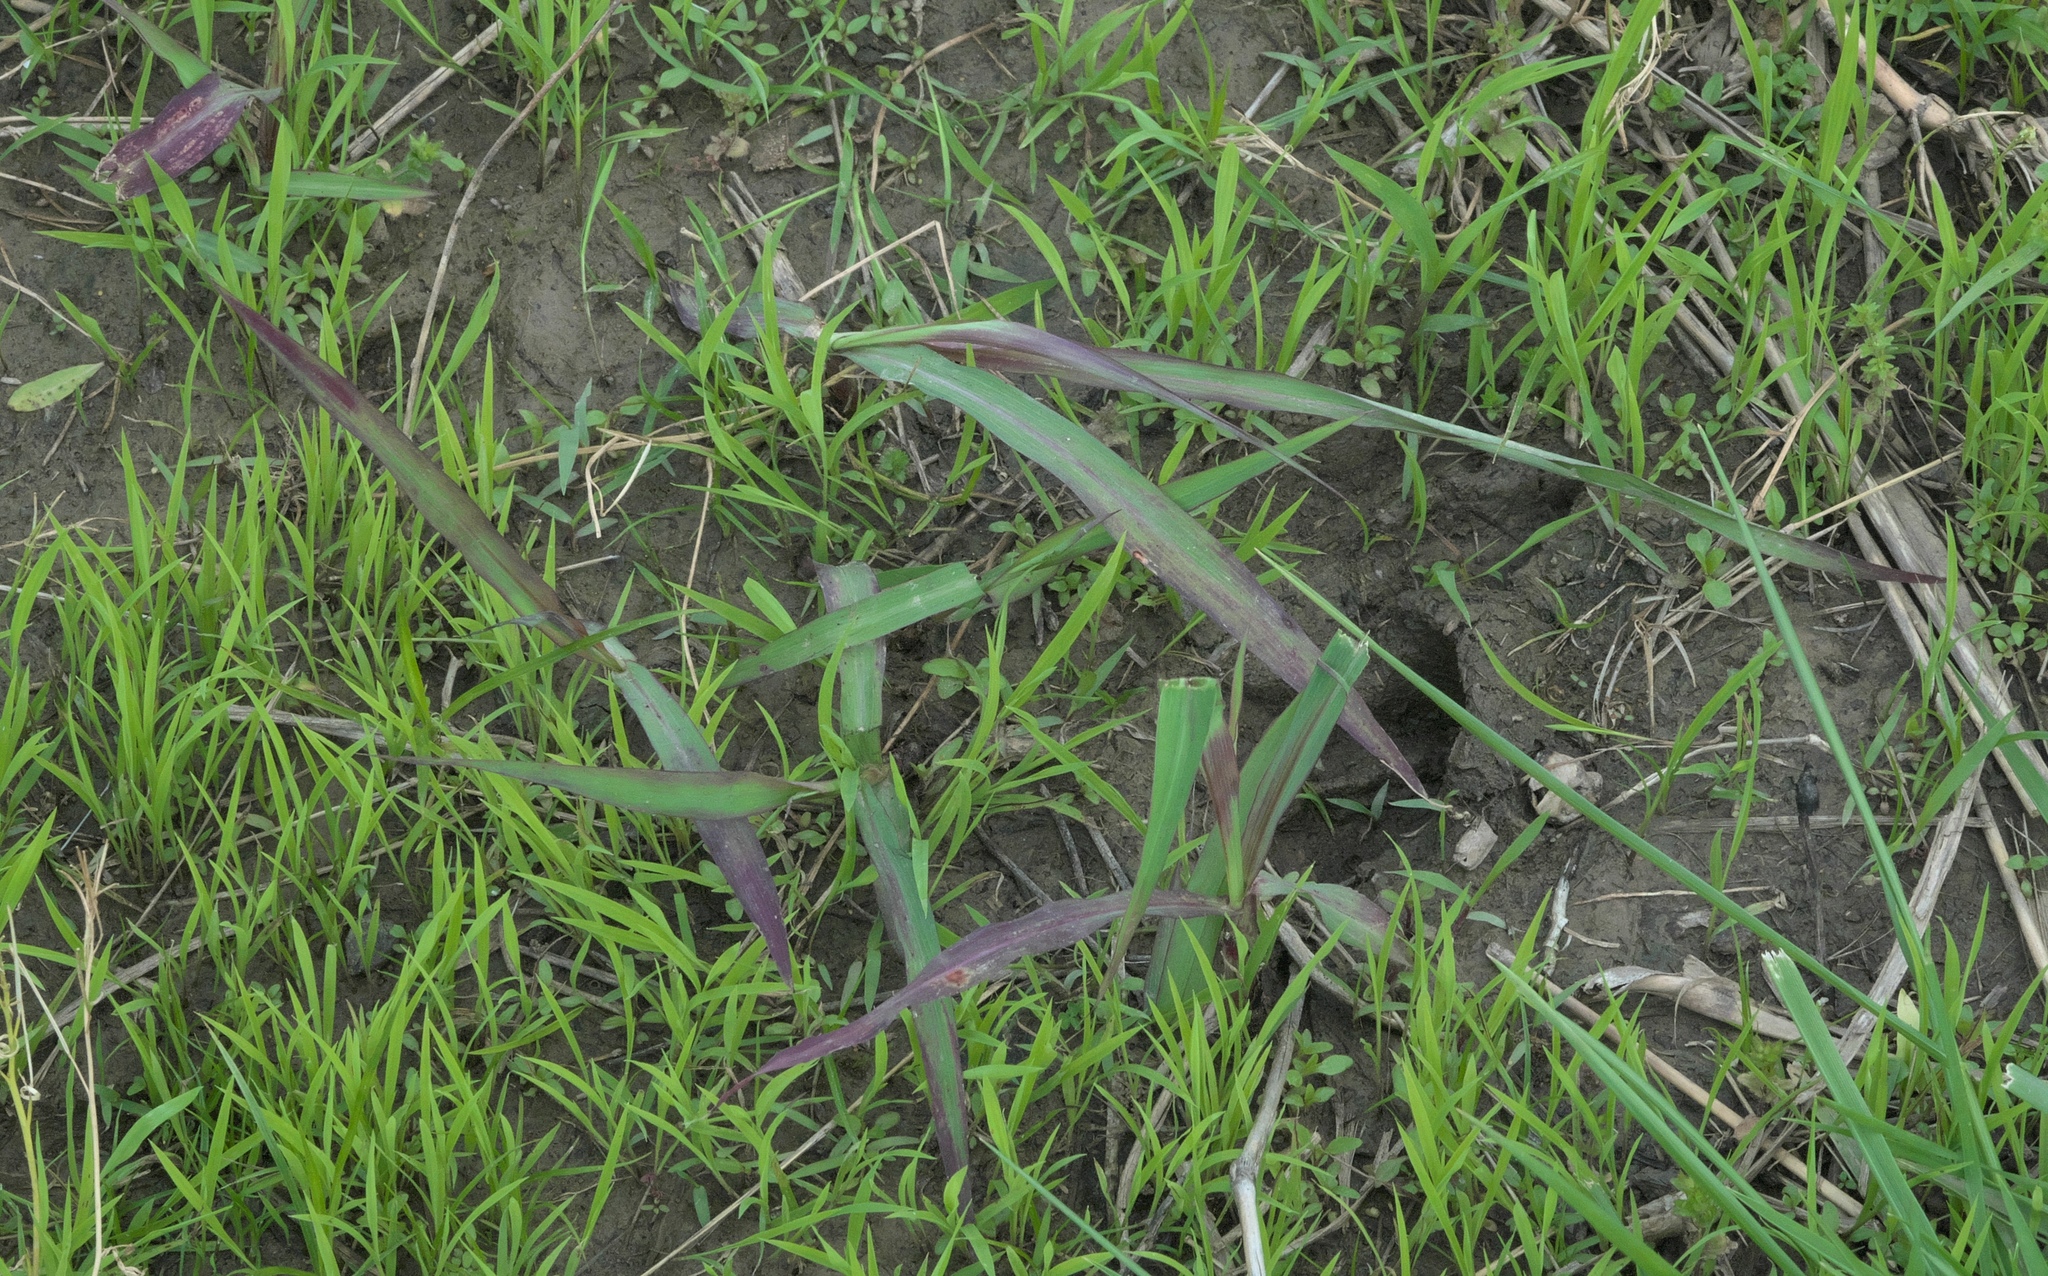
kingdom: Plantae
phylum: Tracheophyta
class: Liliopsida
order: Poales
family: Poaceae
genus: Sorghum
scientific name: Sorghum halepense
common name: Johnson-grass
